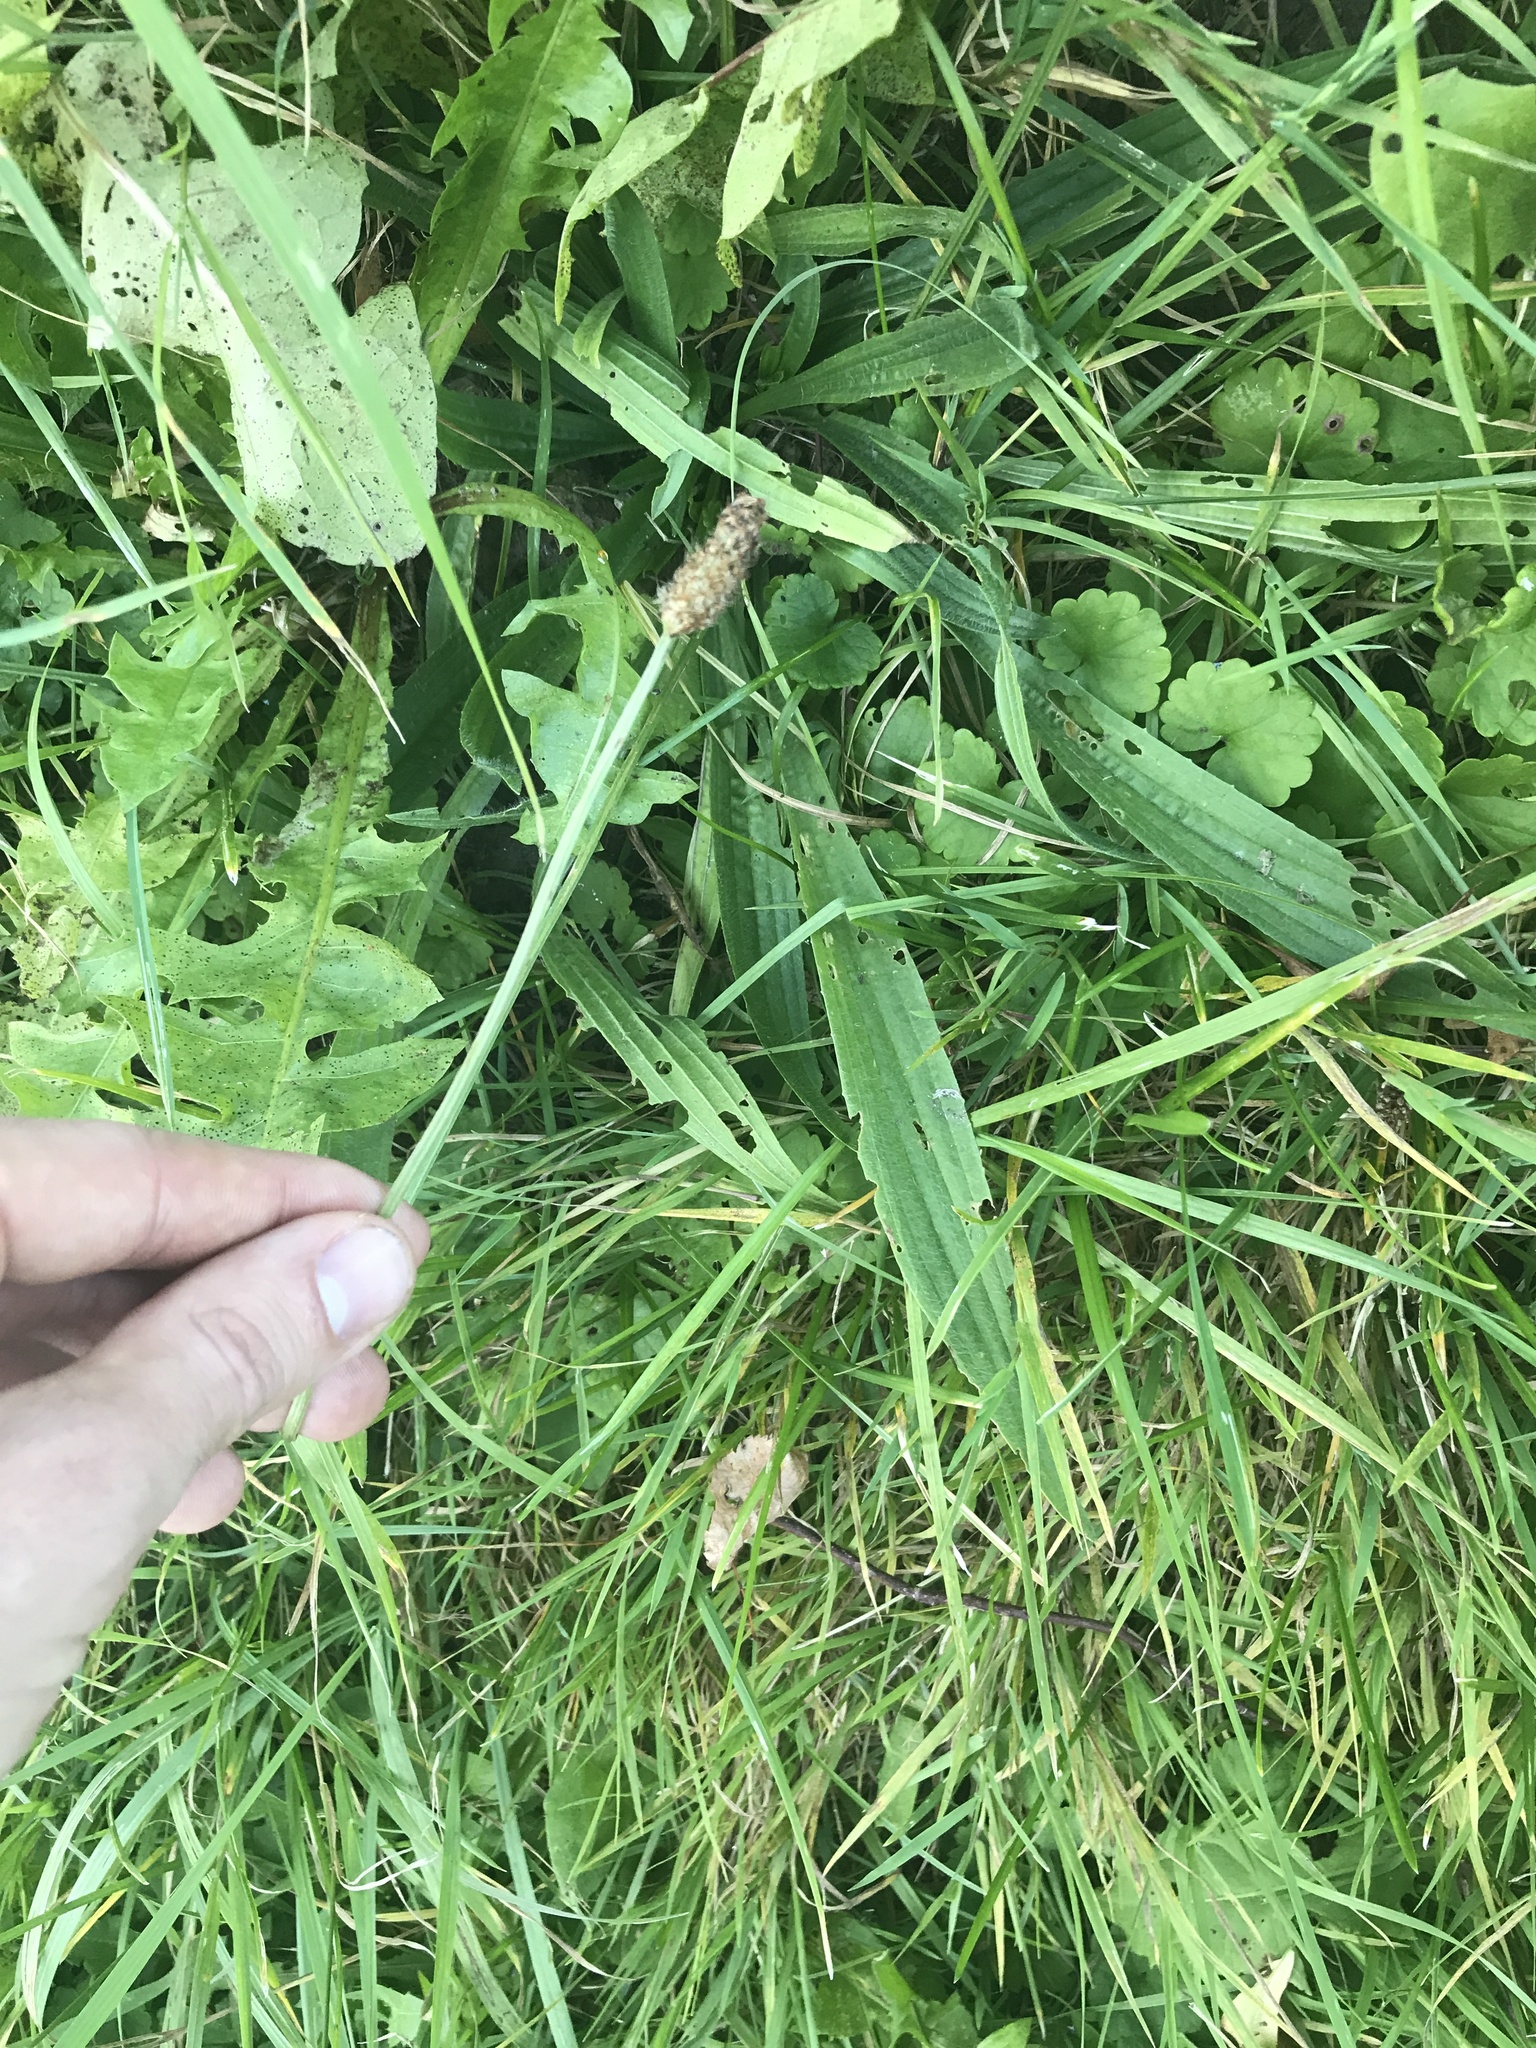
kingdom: Plantae
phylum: Tracheophyta
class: Magnoliopsida
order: Lamiales
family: Plantaginaceae
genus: Plantago
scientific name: Plantago lanceolata
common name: Ribwort plantain
